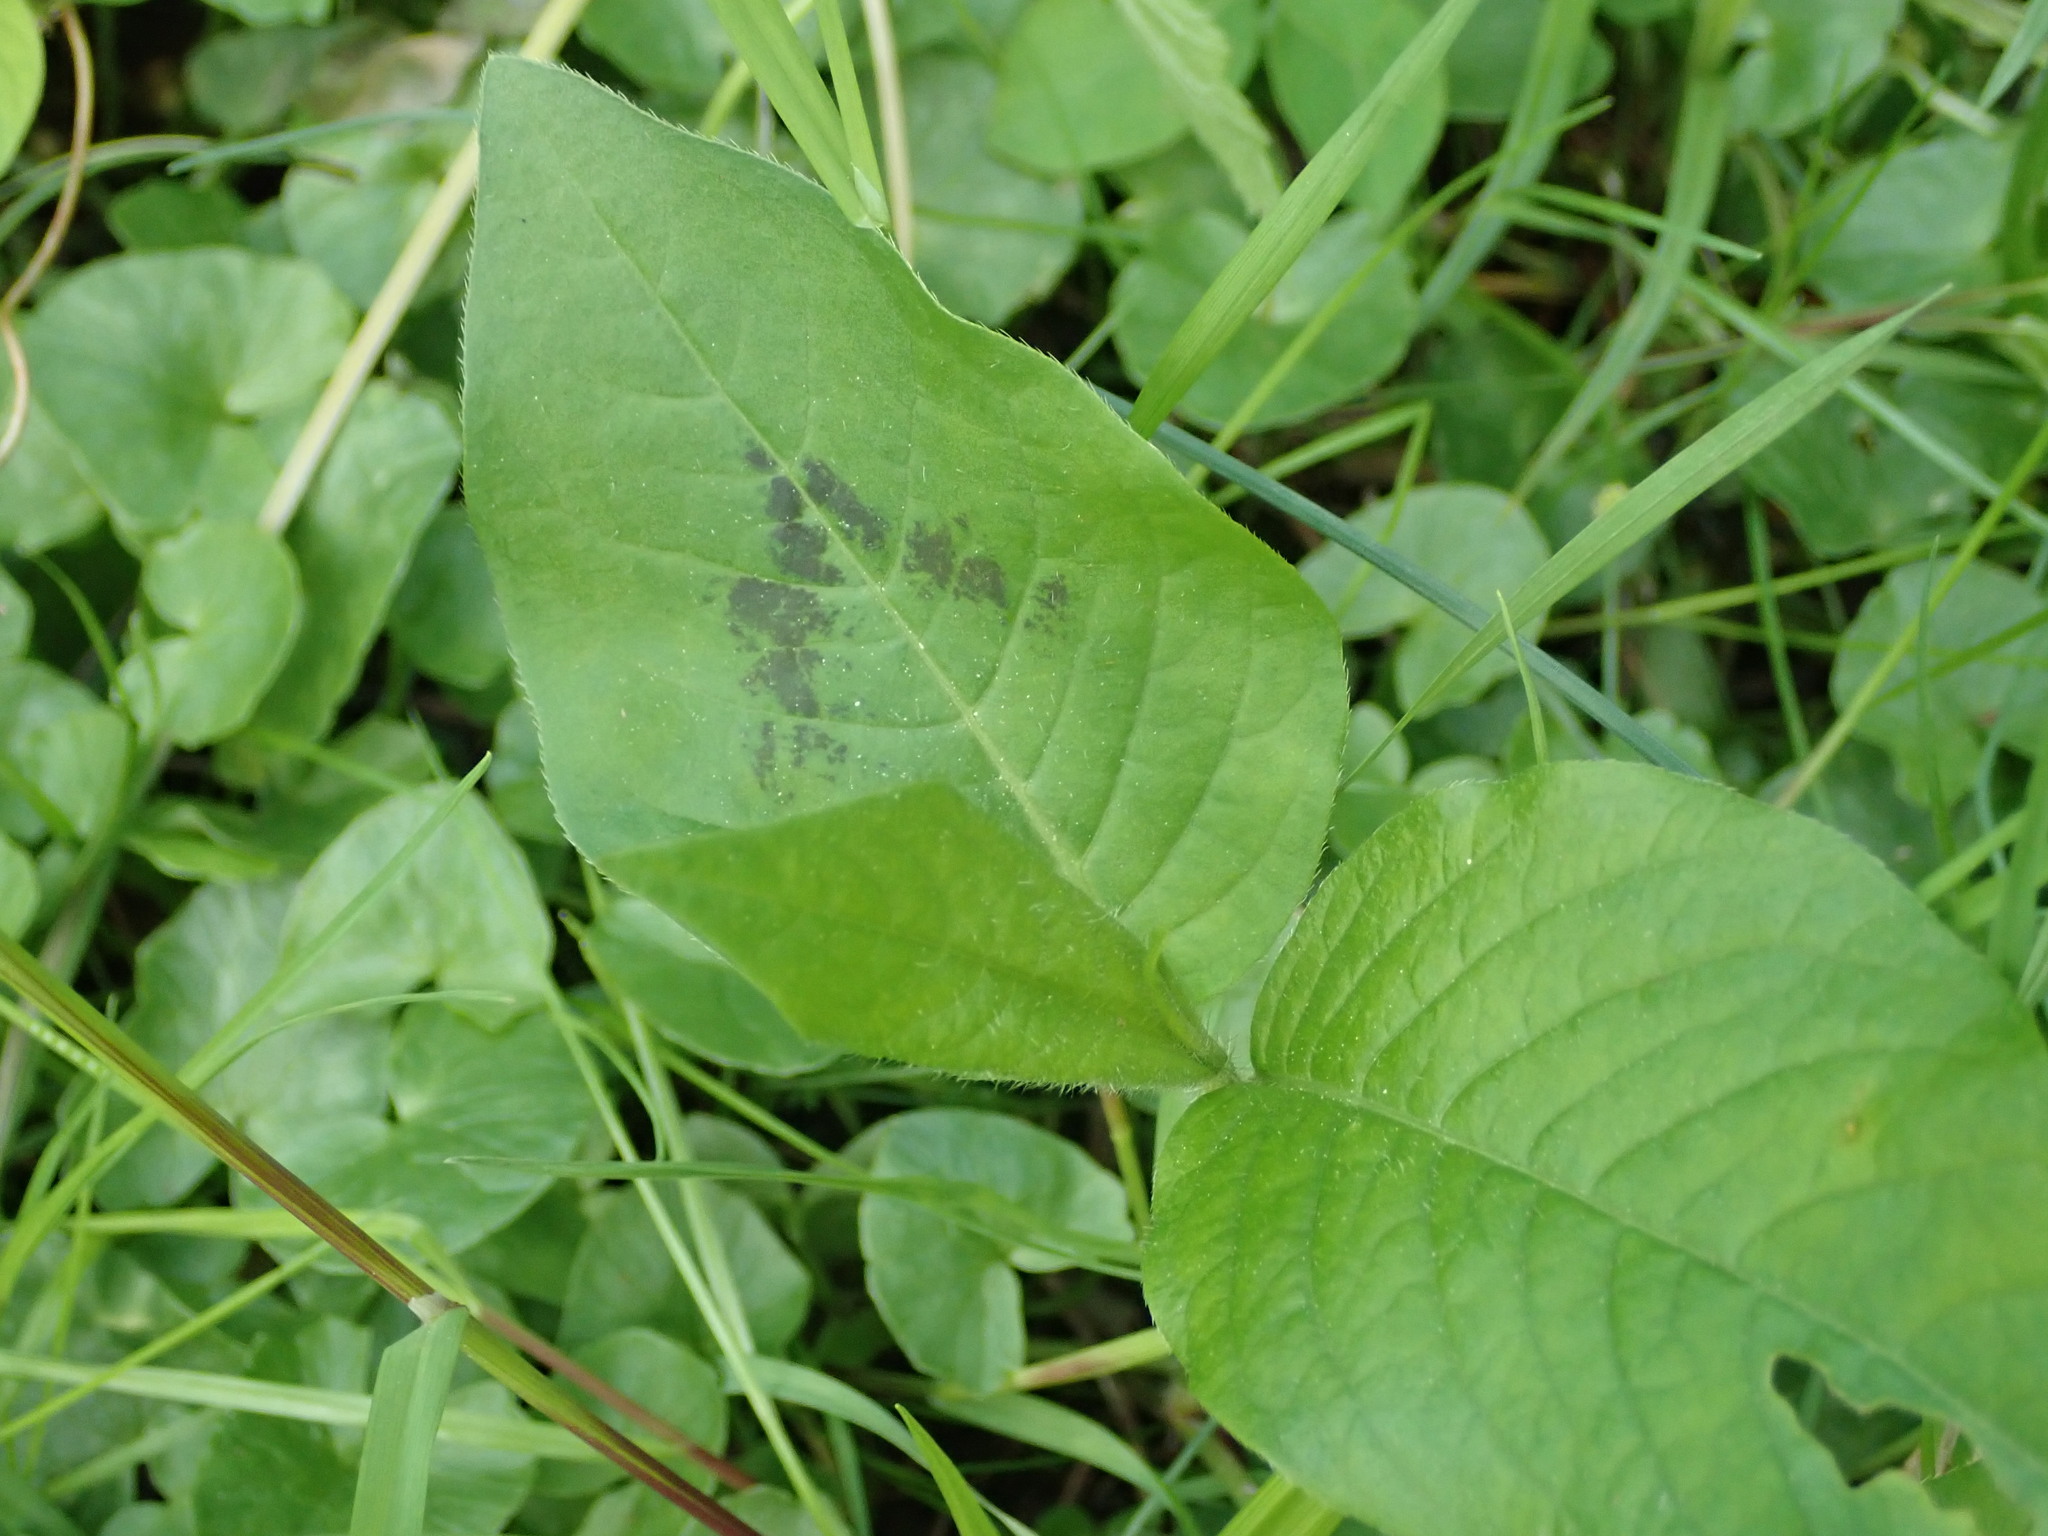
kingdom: Plantae
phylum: Tracheophyta
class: Magnoliopsida
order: Caryophyllales
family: Polygonaceae
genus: Persicaria
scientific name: Persicaria virginiana
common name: Jumpseed
